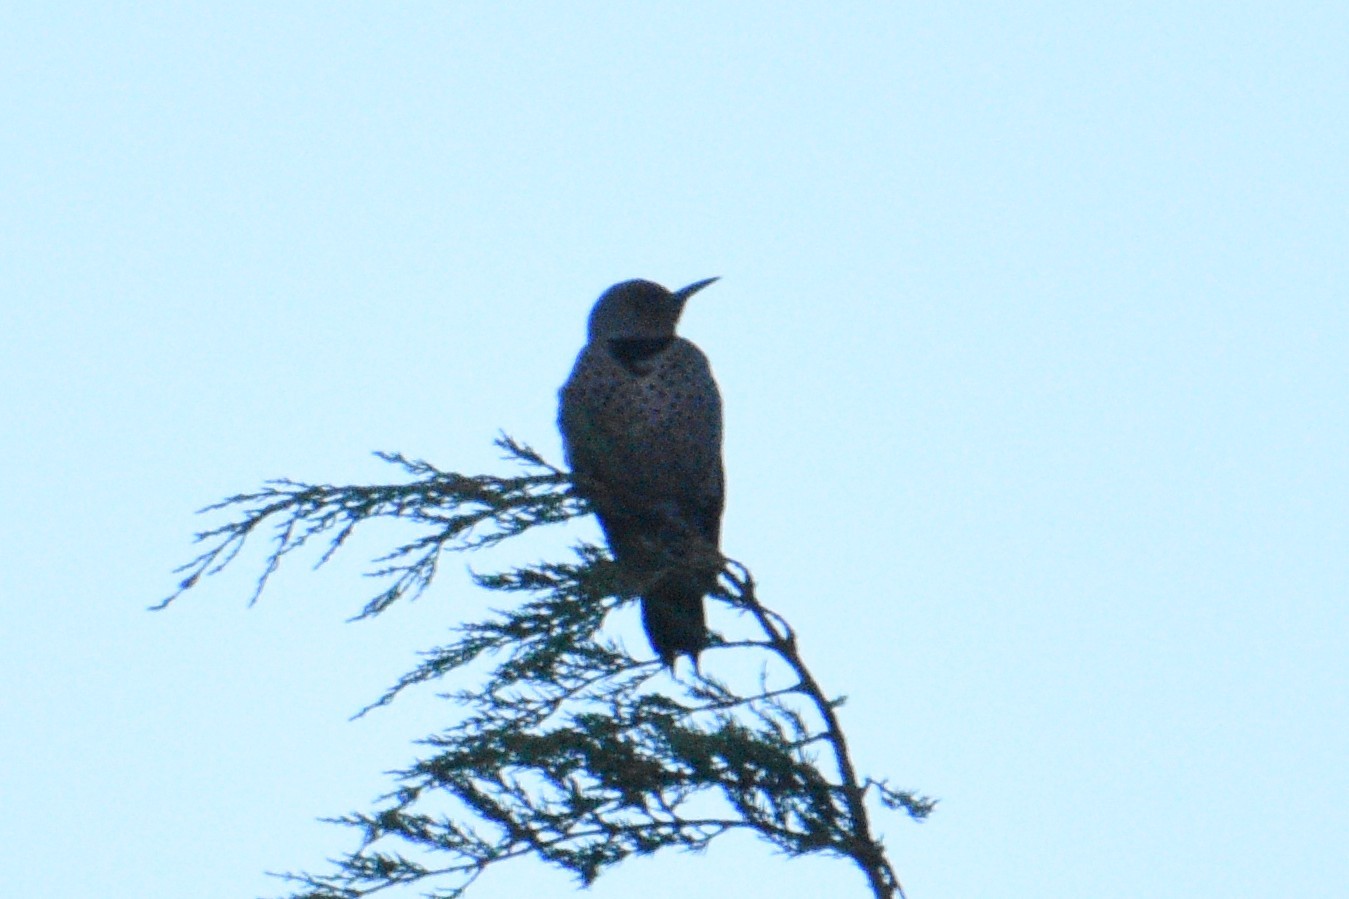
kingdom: Animalia
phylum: Chordata
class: Aves
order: Piciformes
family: Picidae
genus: Colaptes
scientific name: Colaptes auratus
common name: Northern flicker
